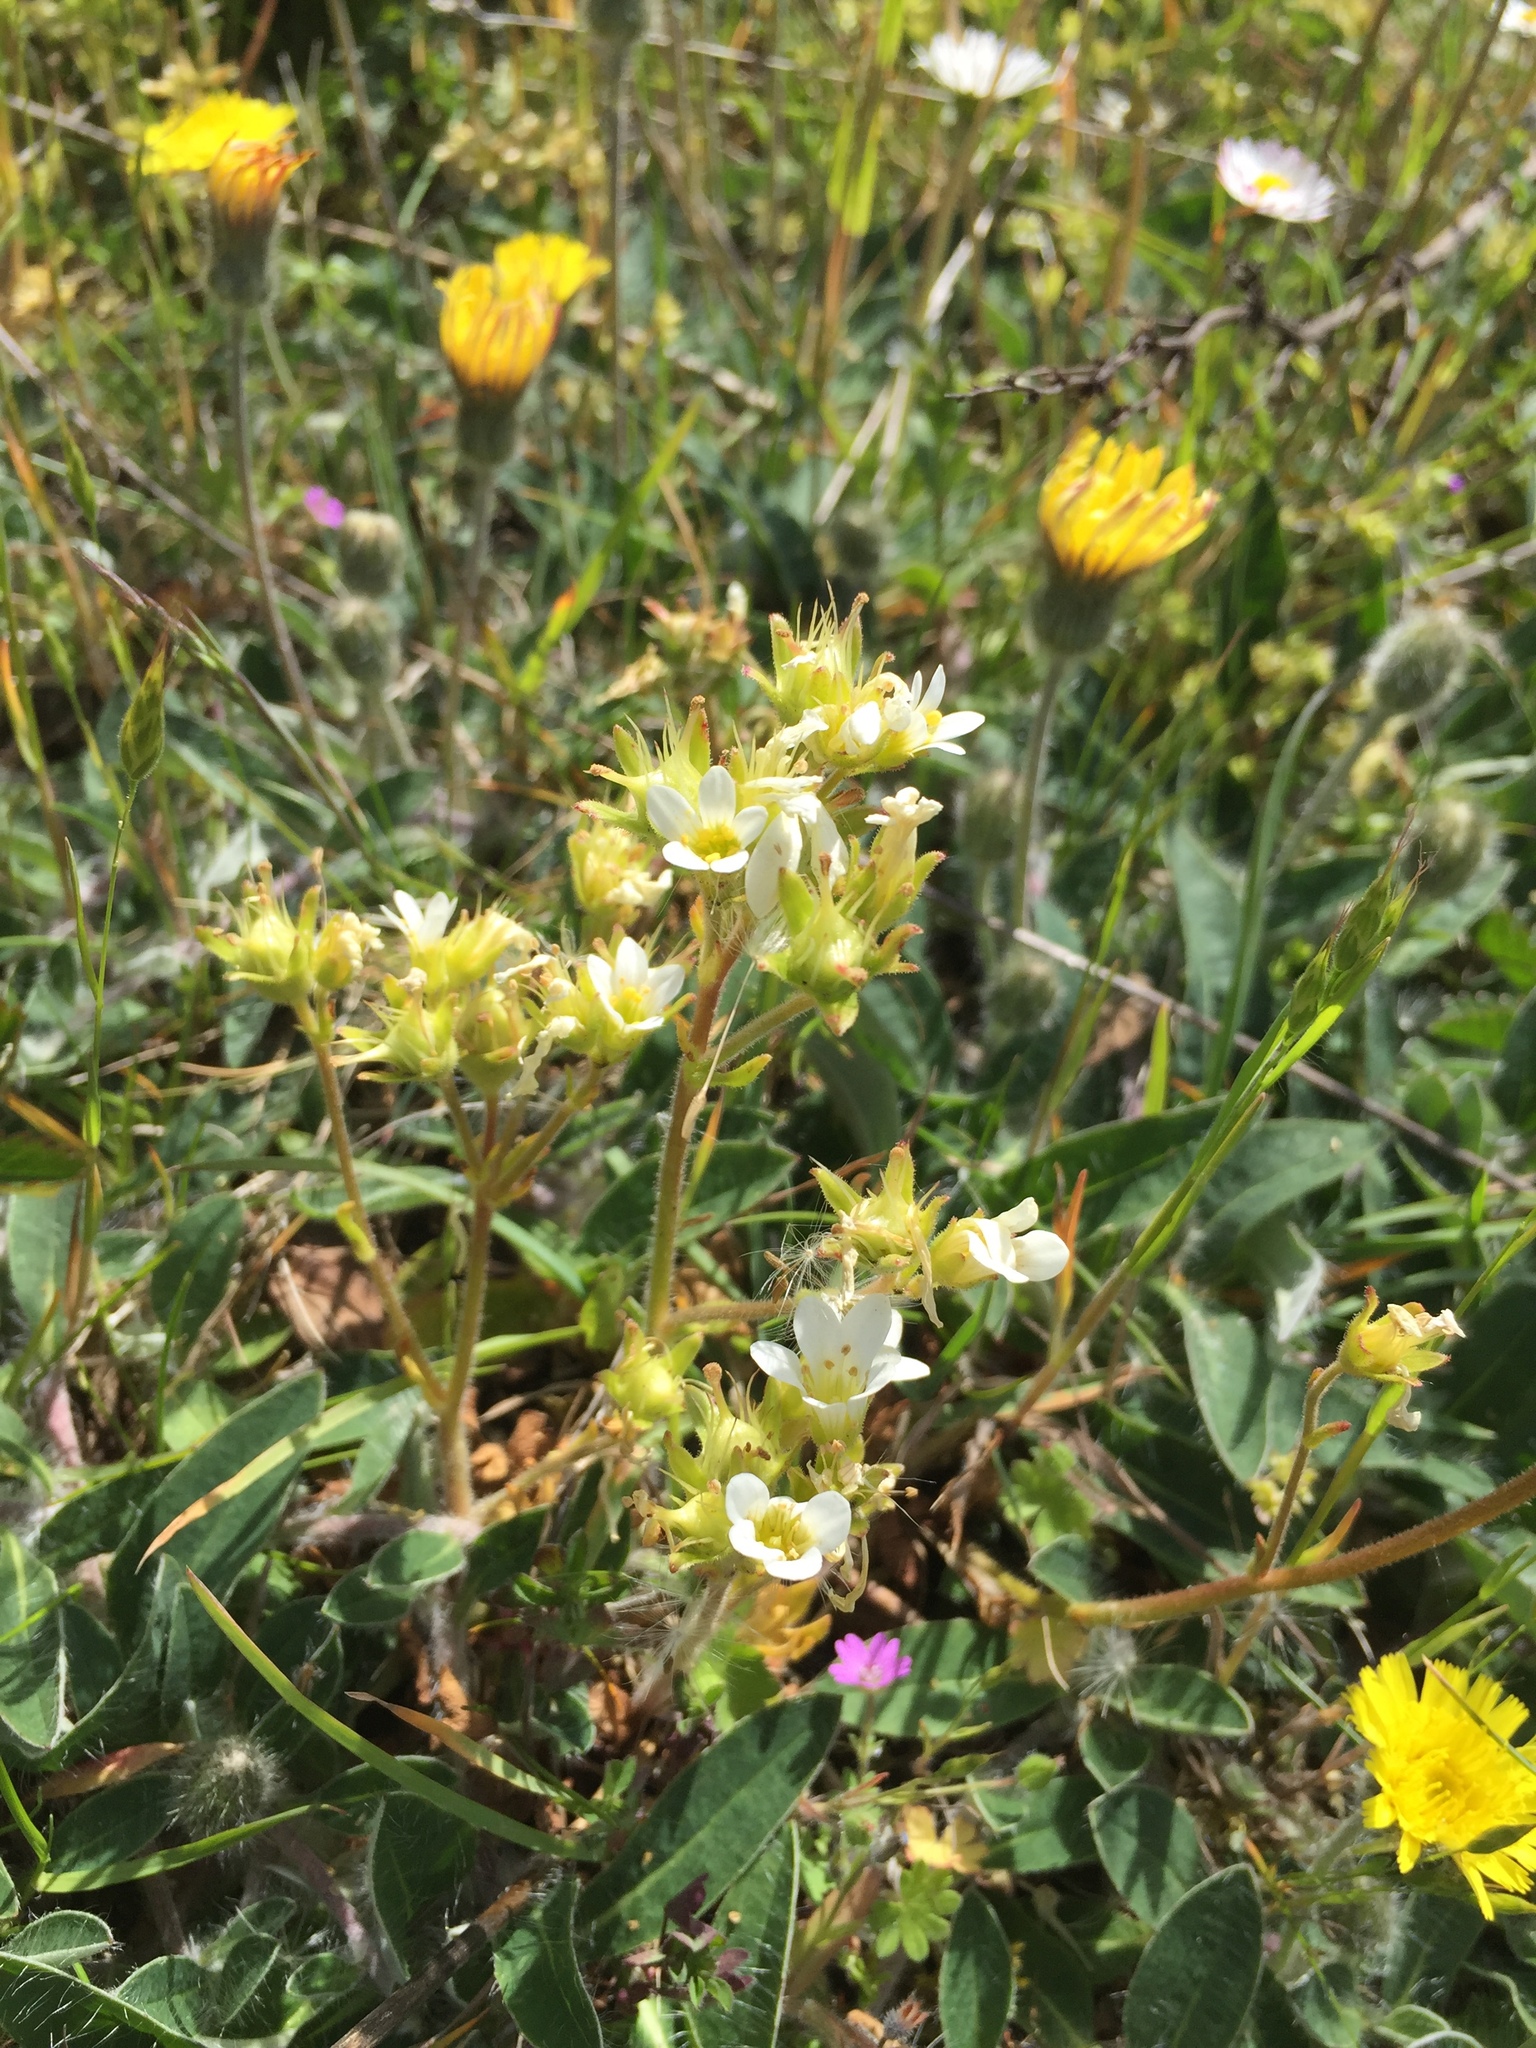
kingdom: Plantae
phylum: Tracheophyta
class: Magnoliopsida
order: Saxifragales
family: Saxifragaceae
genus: Saxifraga
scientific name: Saxifraga granulata
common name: Meadow saxifrage
